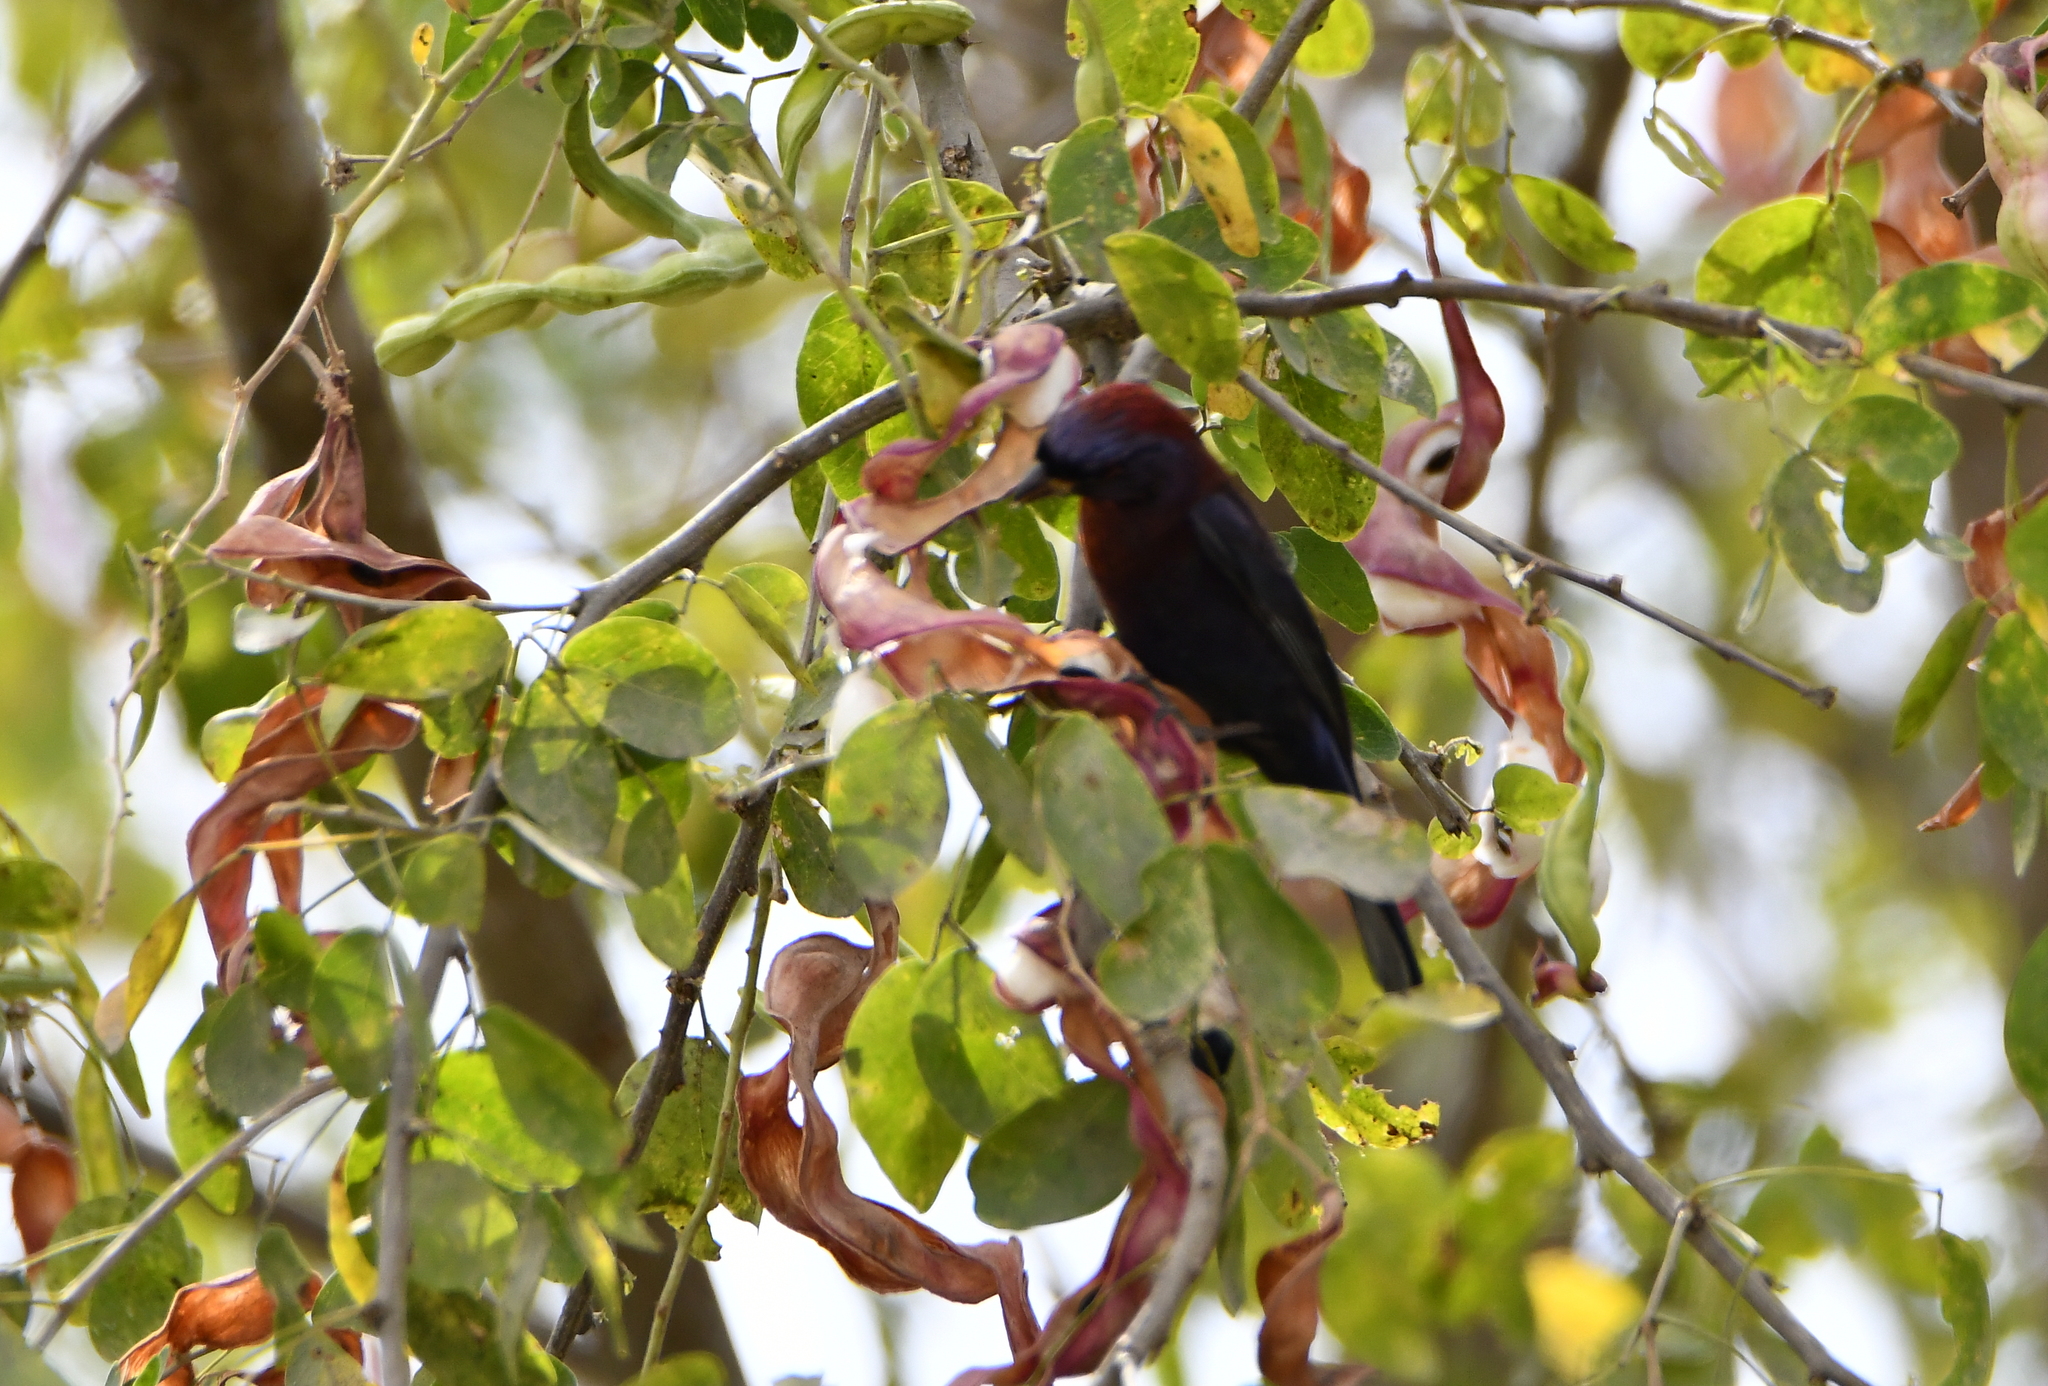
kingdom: Animalia
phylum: Chordata
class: Aves
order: Passeriformes
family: Cardinalidae
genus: Passerina
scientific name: Passerina versicolor
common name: Varied bunting
